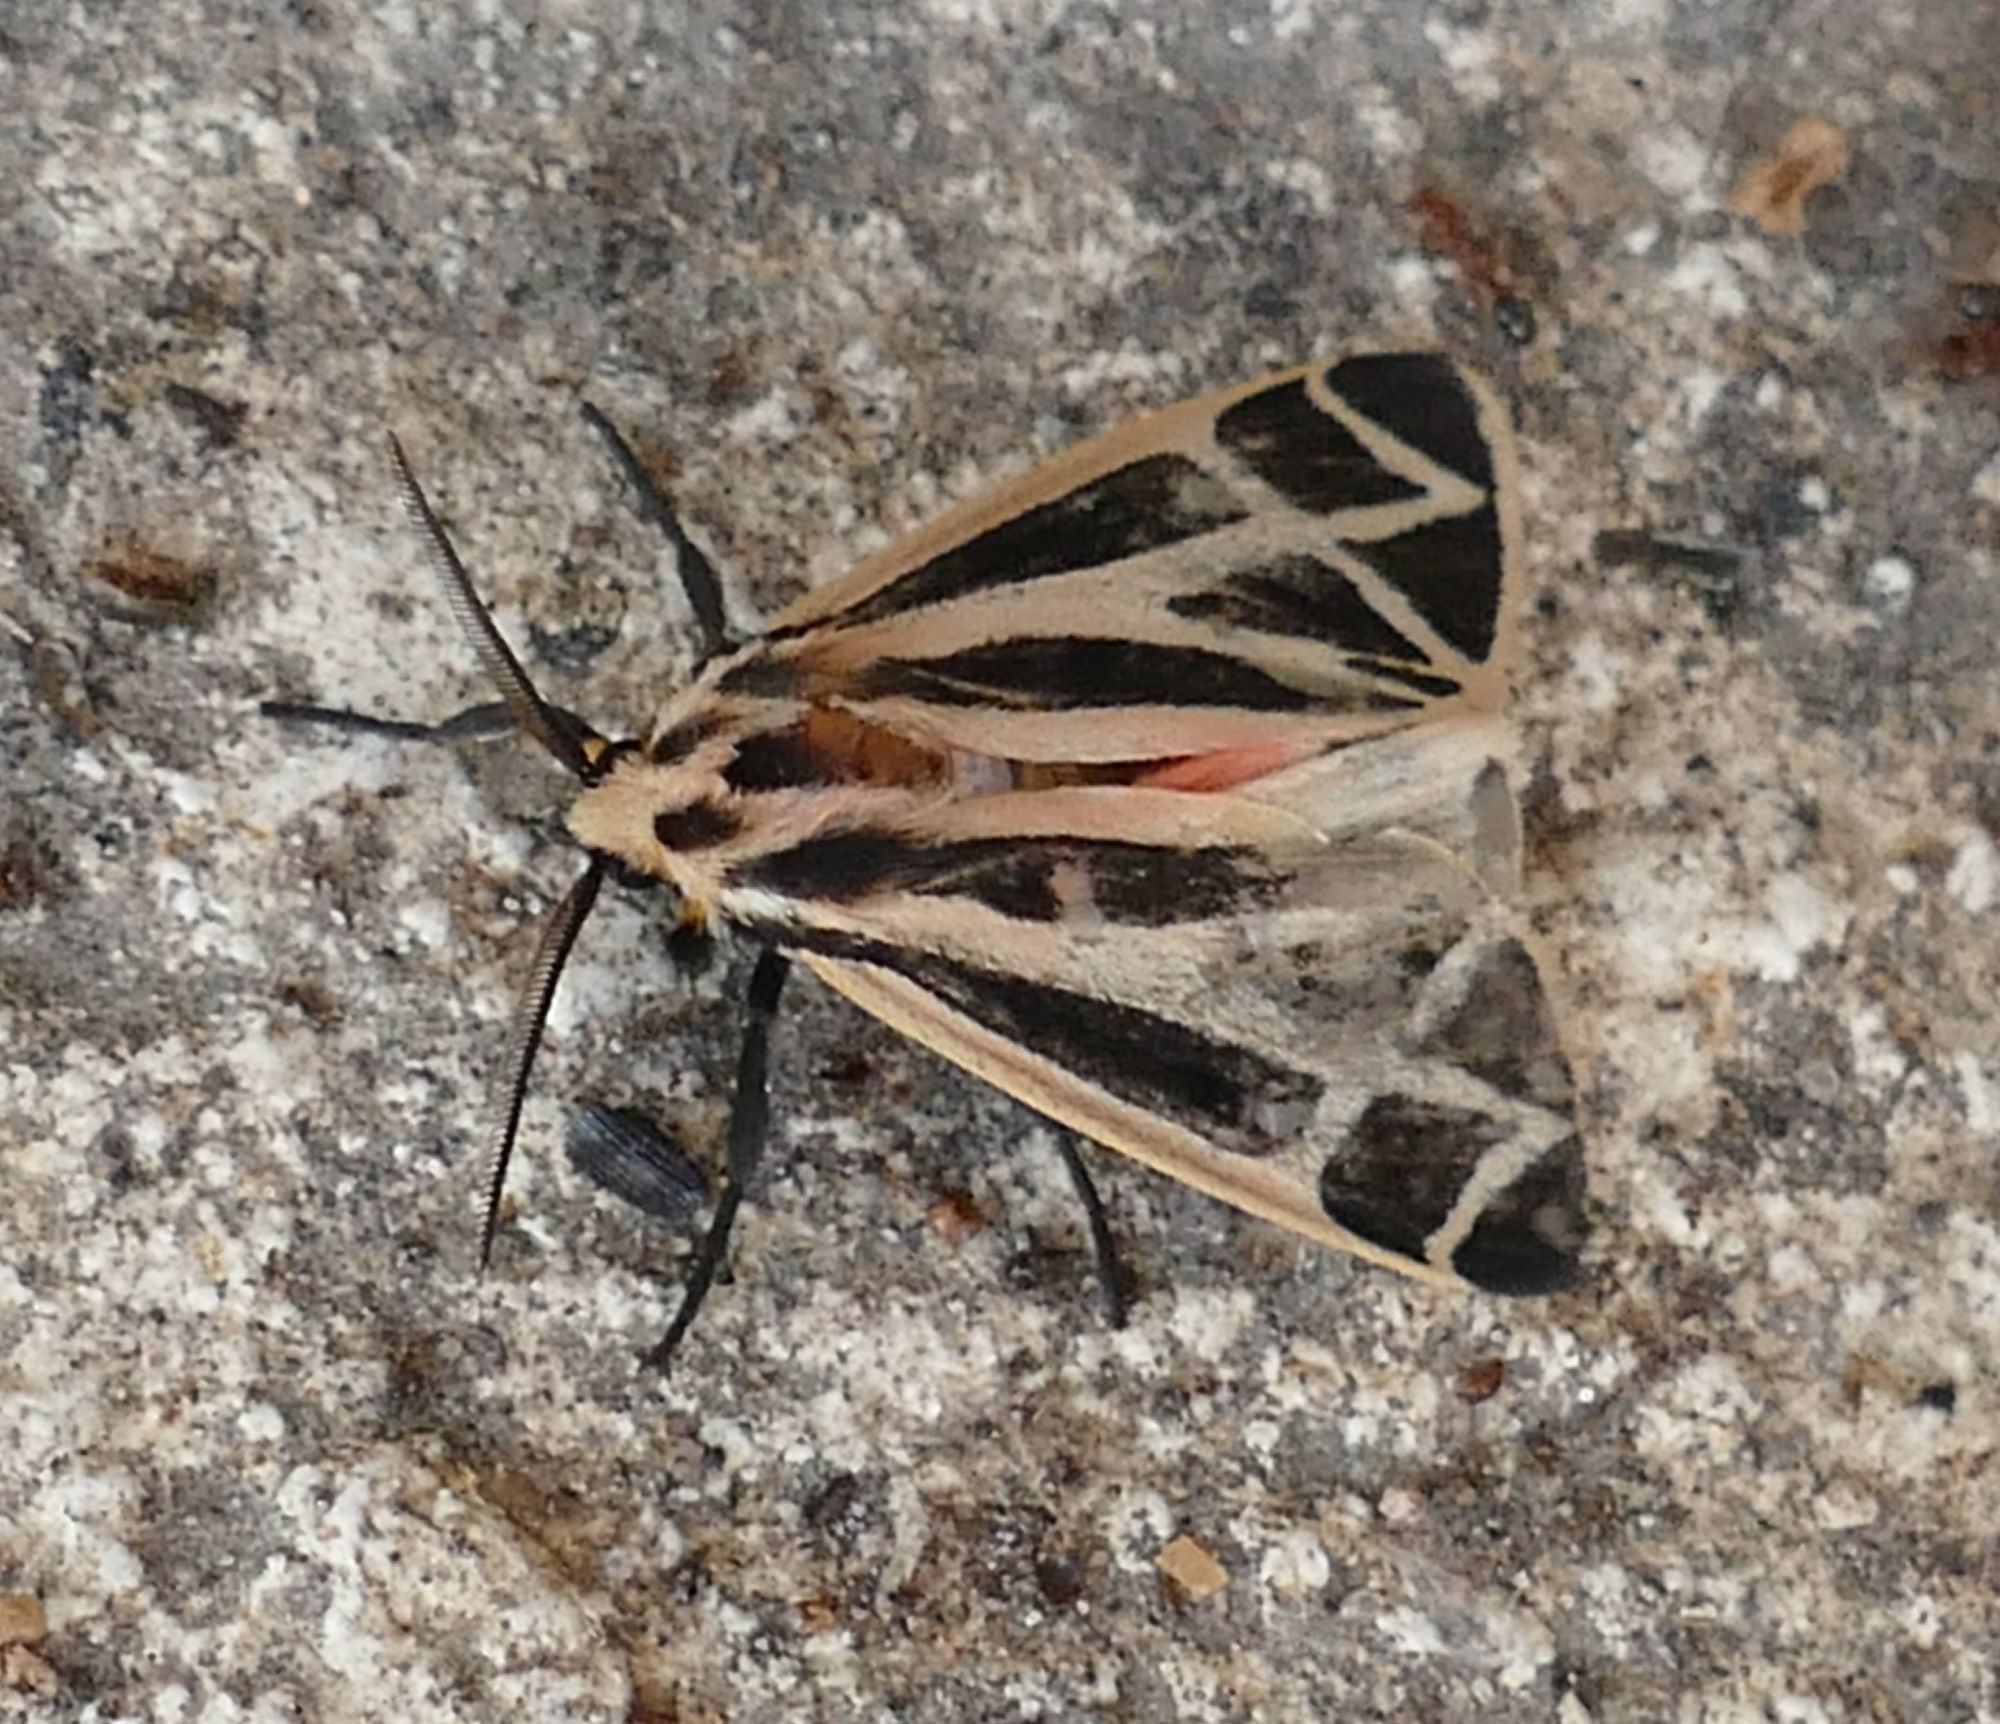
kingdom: Animalia
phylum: Arthropoda
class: Insecta
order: Lepidoptera
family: Erebidae
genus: Apantesis
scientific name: Apantesis phalerata
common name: Harnessed tiger moth
